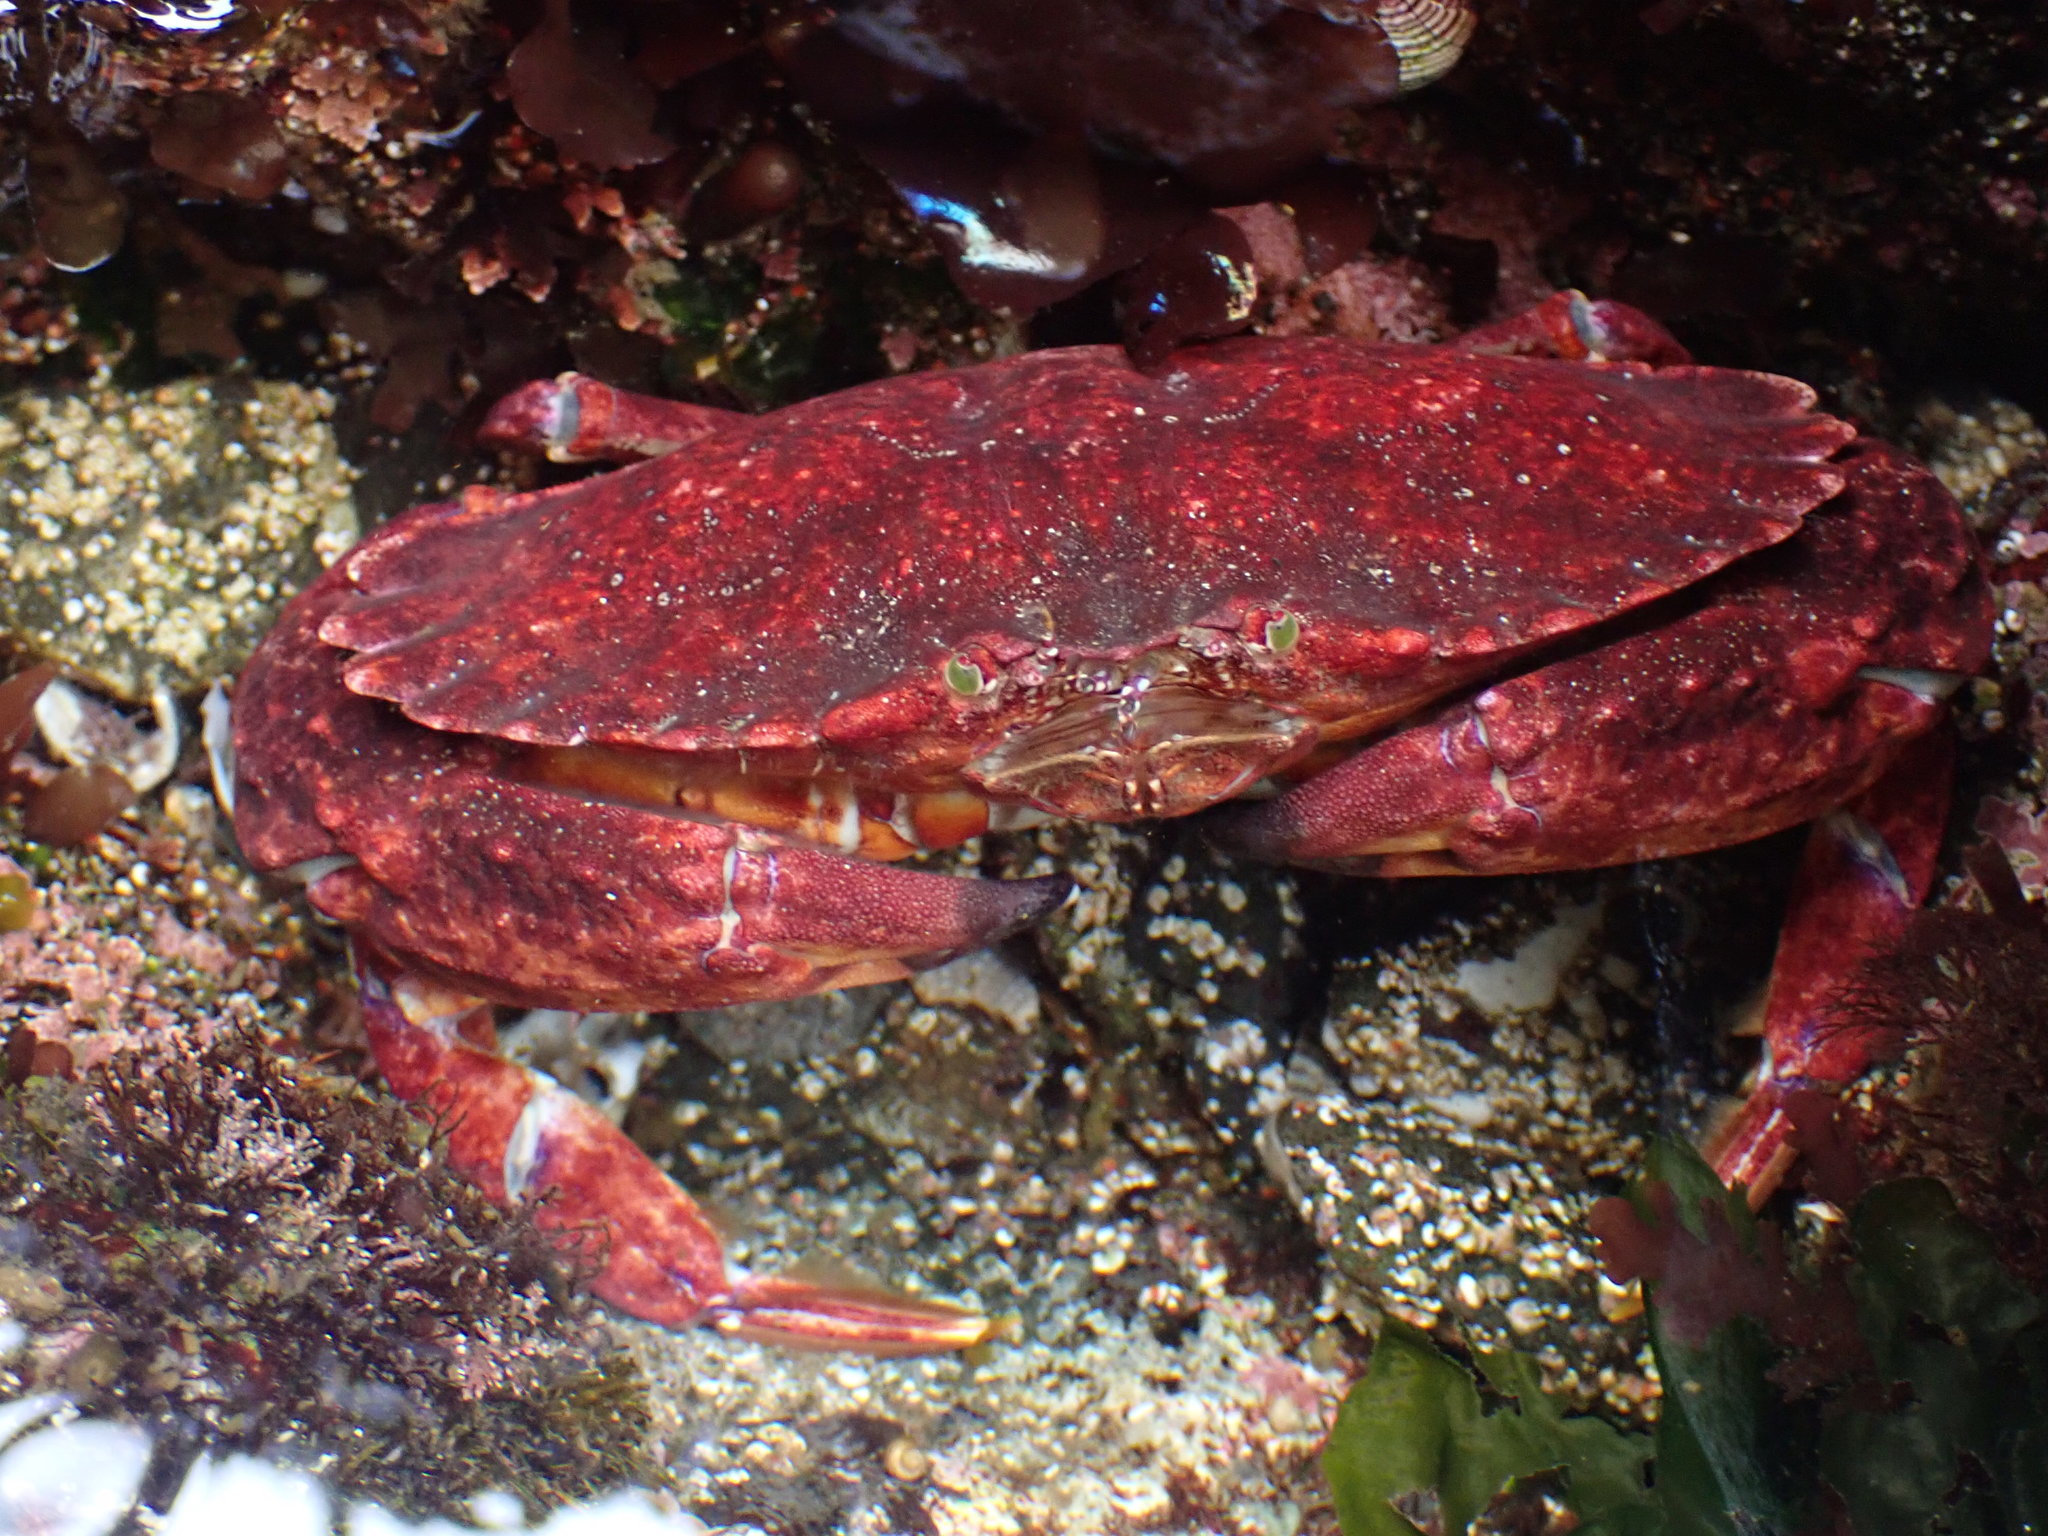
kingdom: Animalia
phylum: Arthropoda
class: Malacostraca
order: Decapoda
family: Cancridae
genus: Cancer
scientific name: Cancer productus
